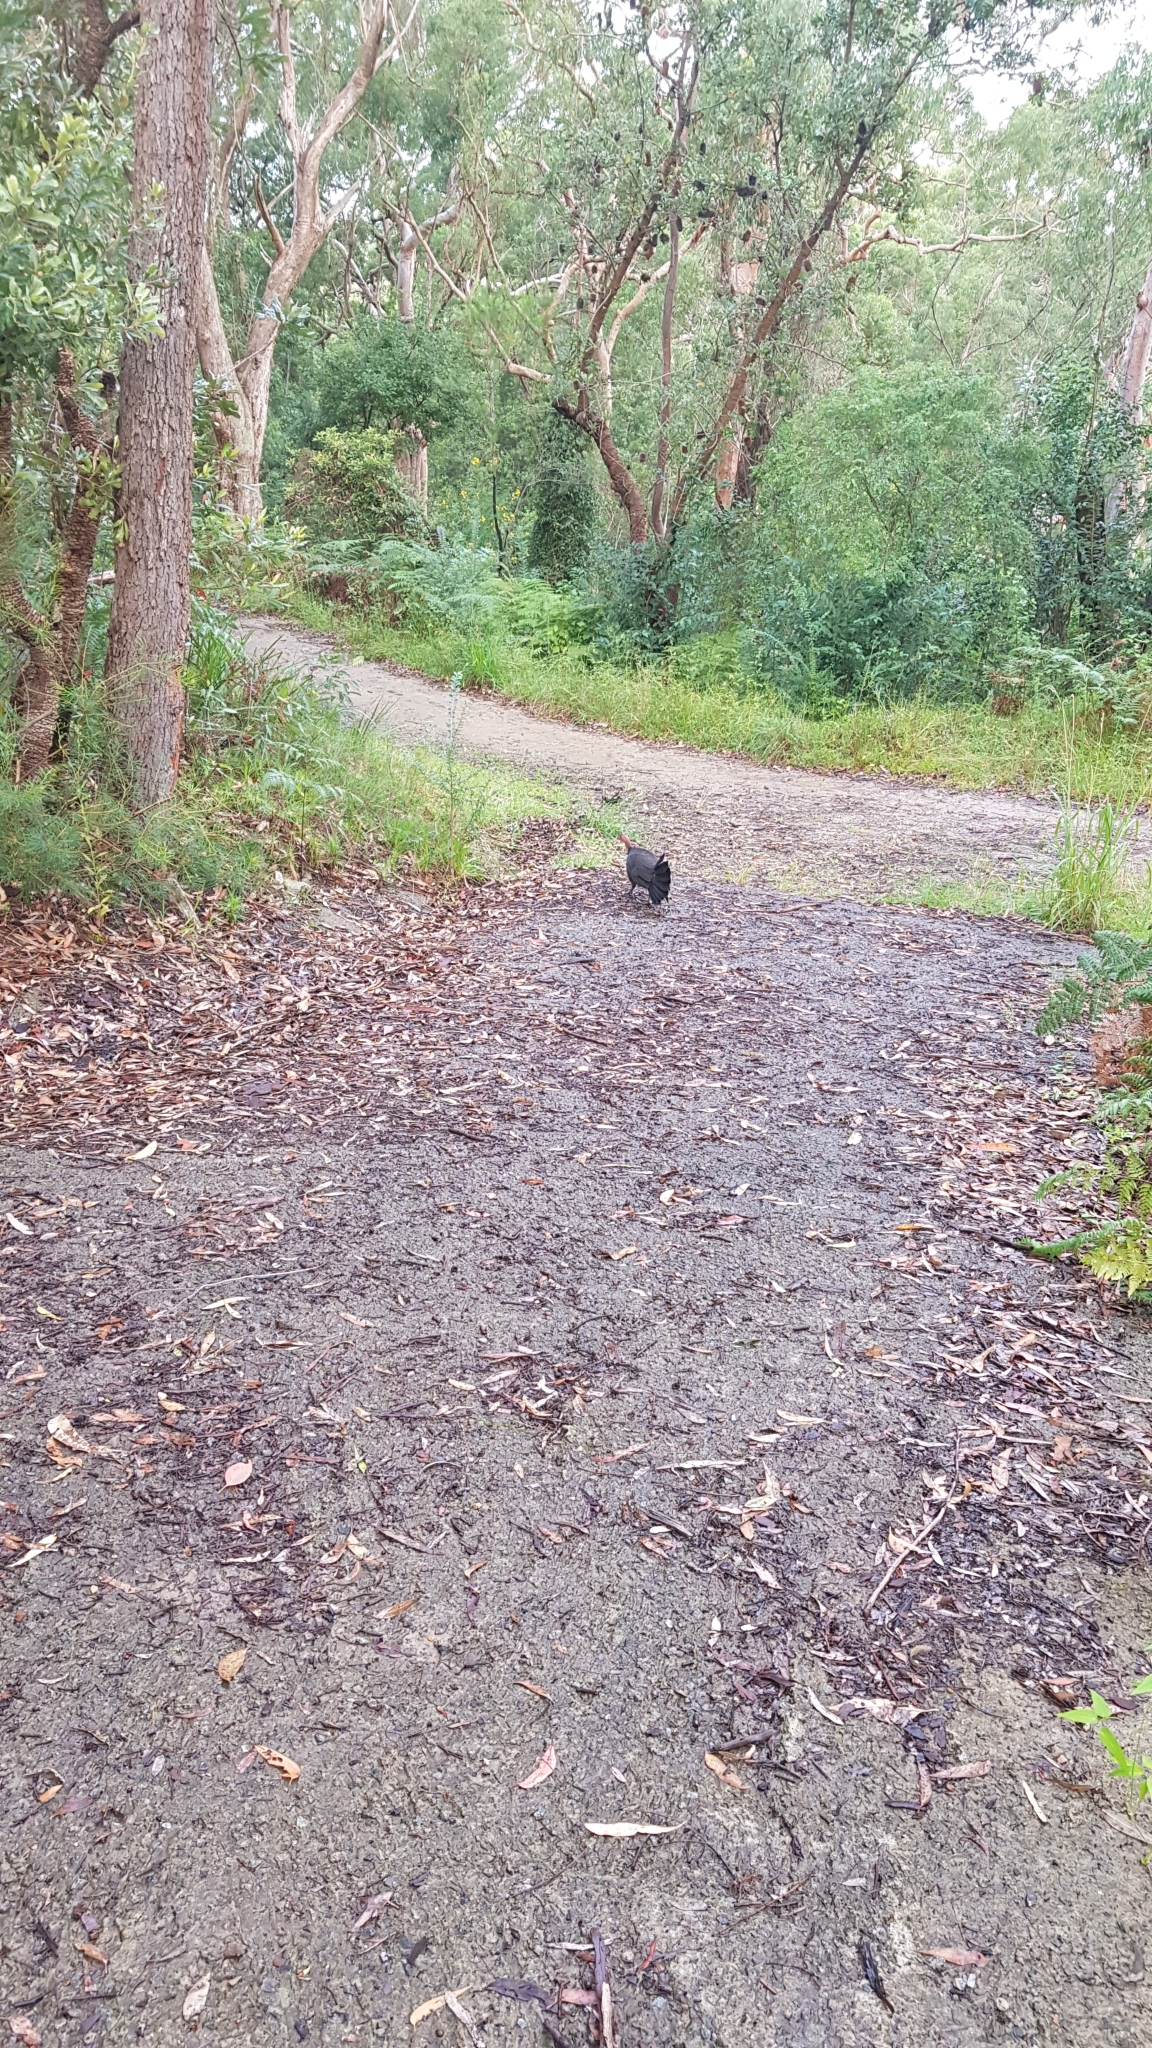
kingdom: Animalia
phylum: Chordata
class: Aves
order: Galliformes
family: Megapodiidae
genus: Alectura
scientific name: Alectura lathami
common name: Australian brushturkey
